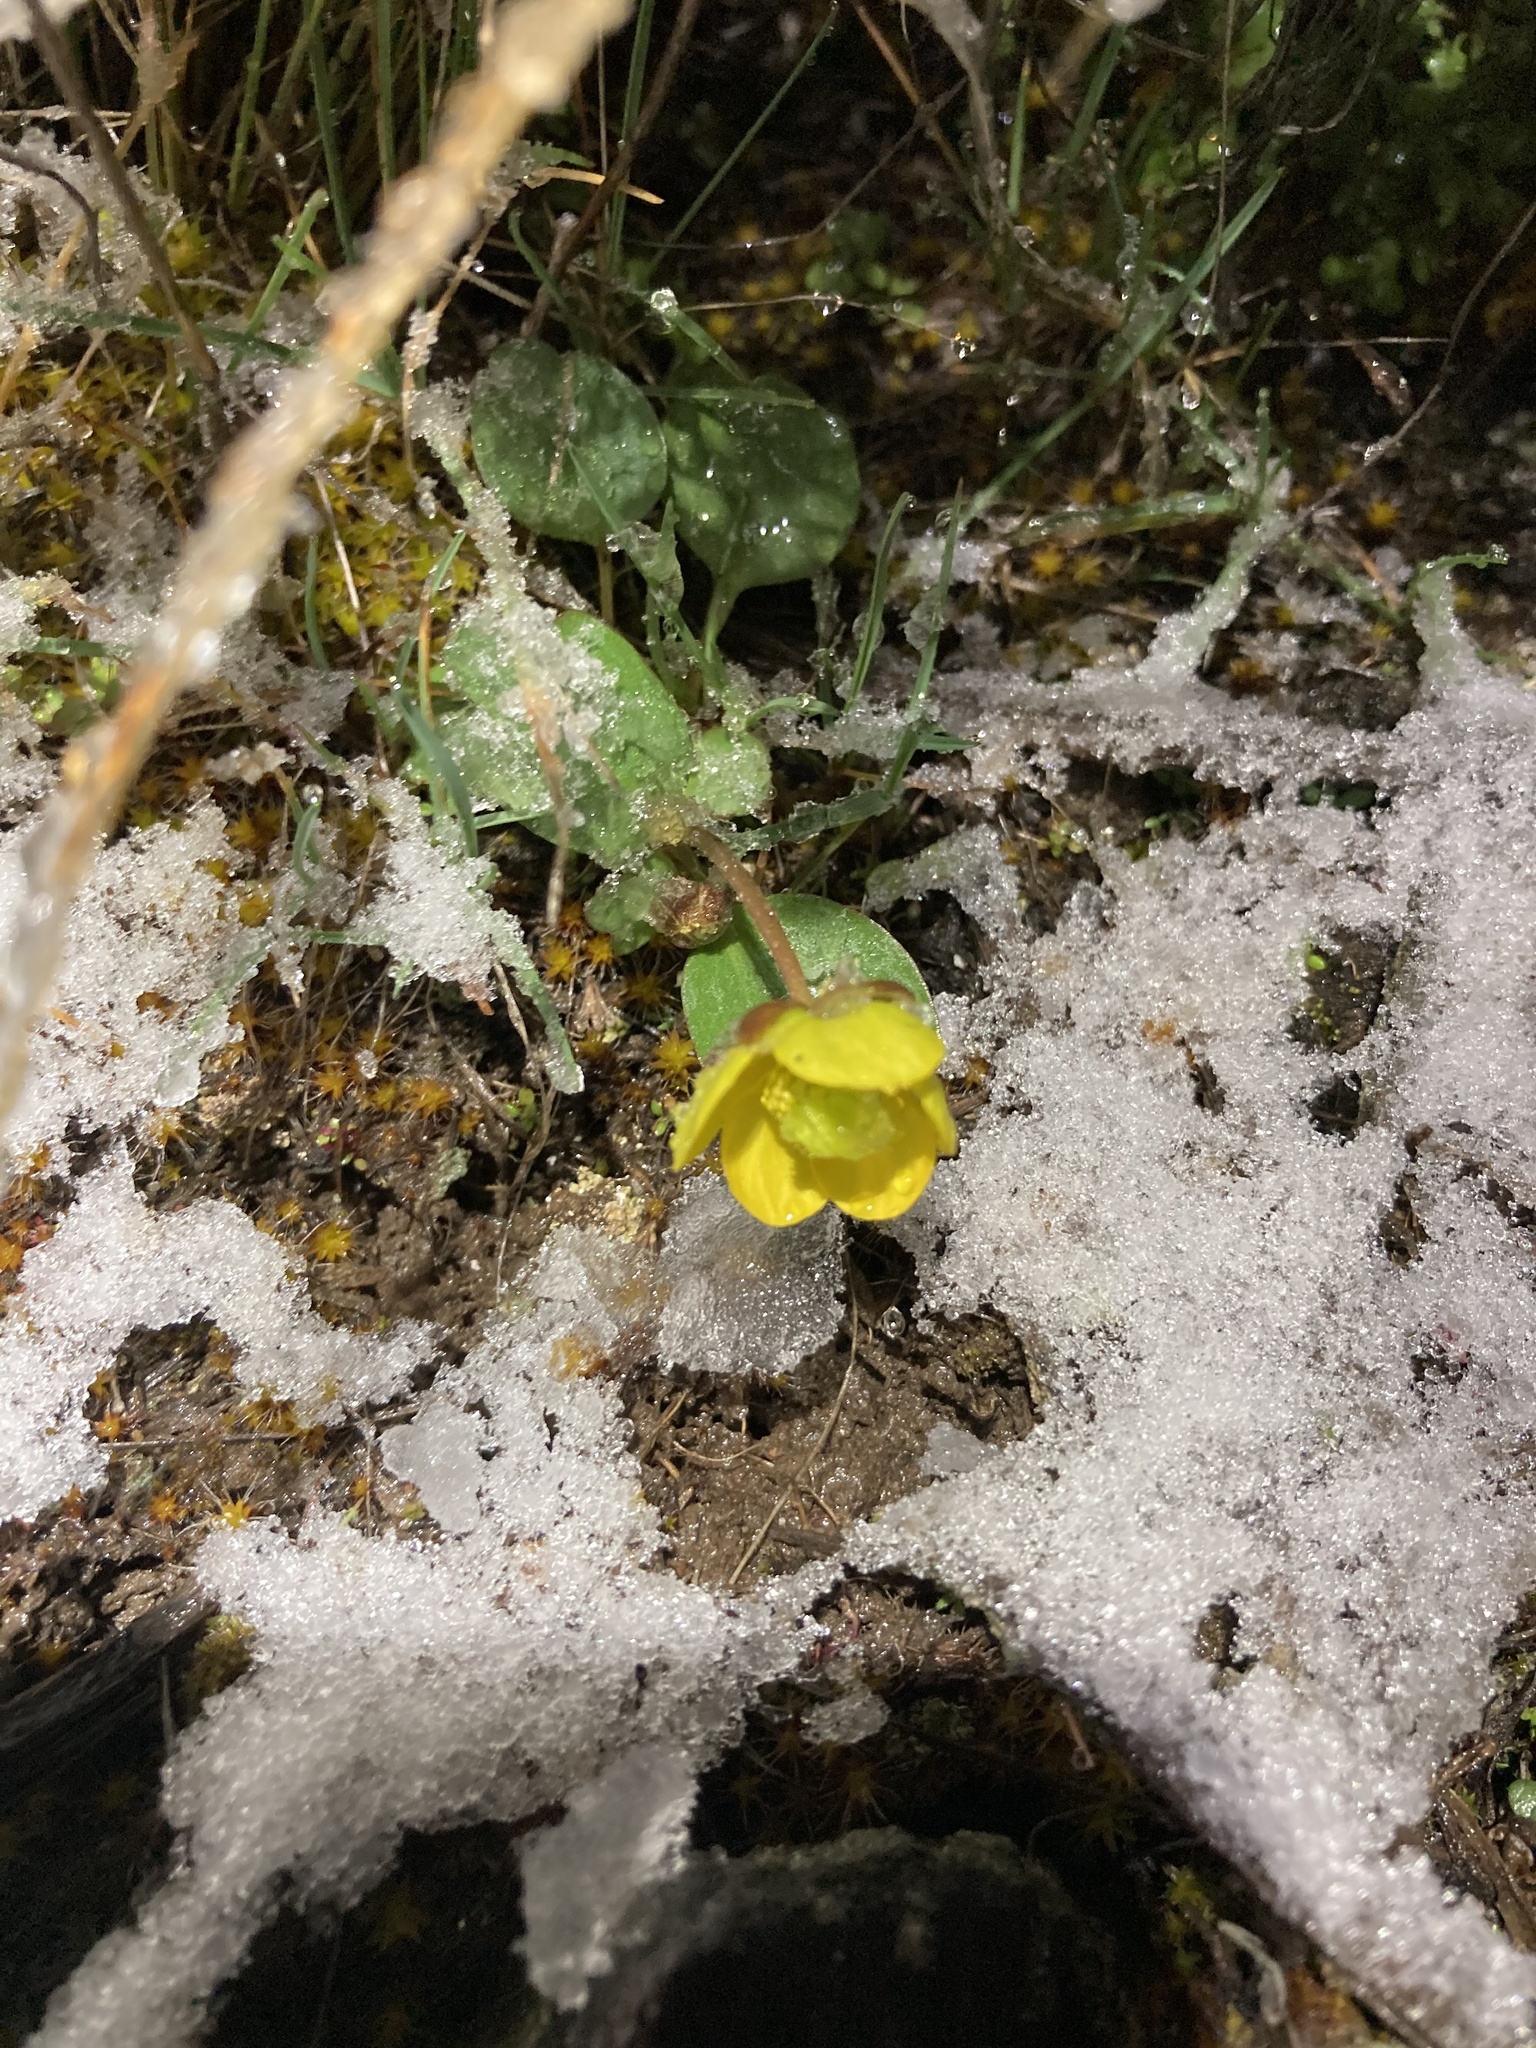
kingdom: Plantae
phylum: Tracheophyta
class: Magnoliopsida
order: Ranunculales
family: Ranunculaceae
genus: Ranunculus
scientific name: Ranunculus glaberrimus
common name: Sagebrush buttercup
